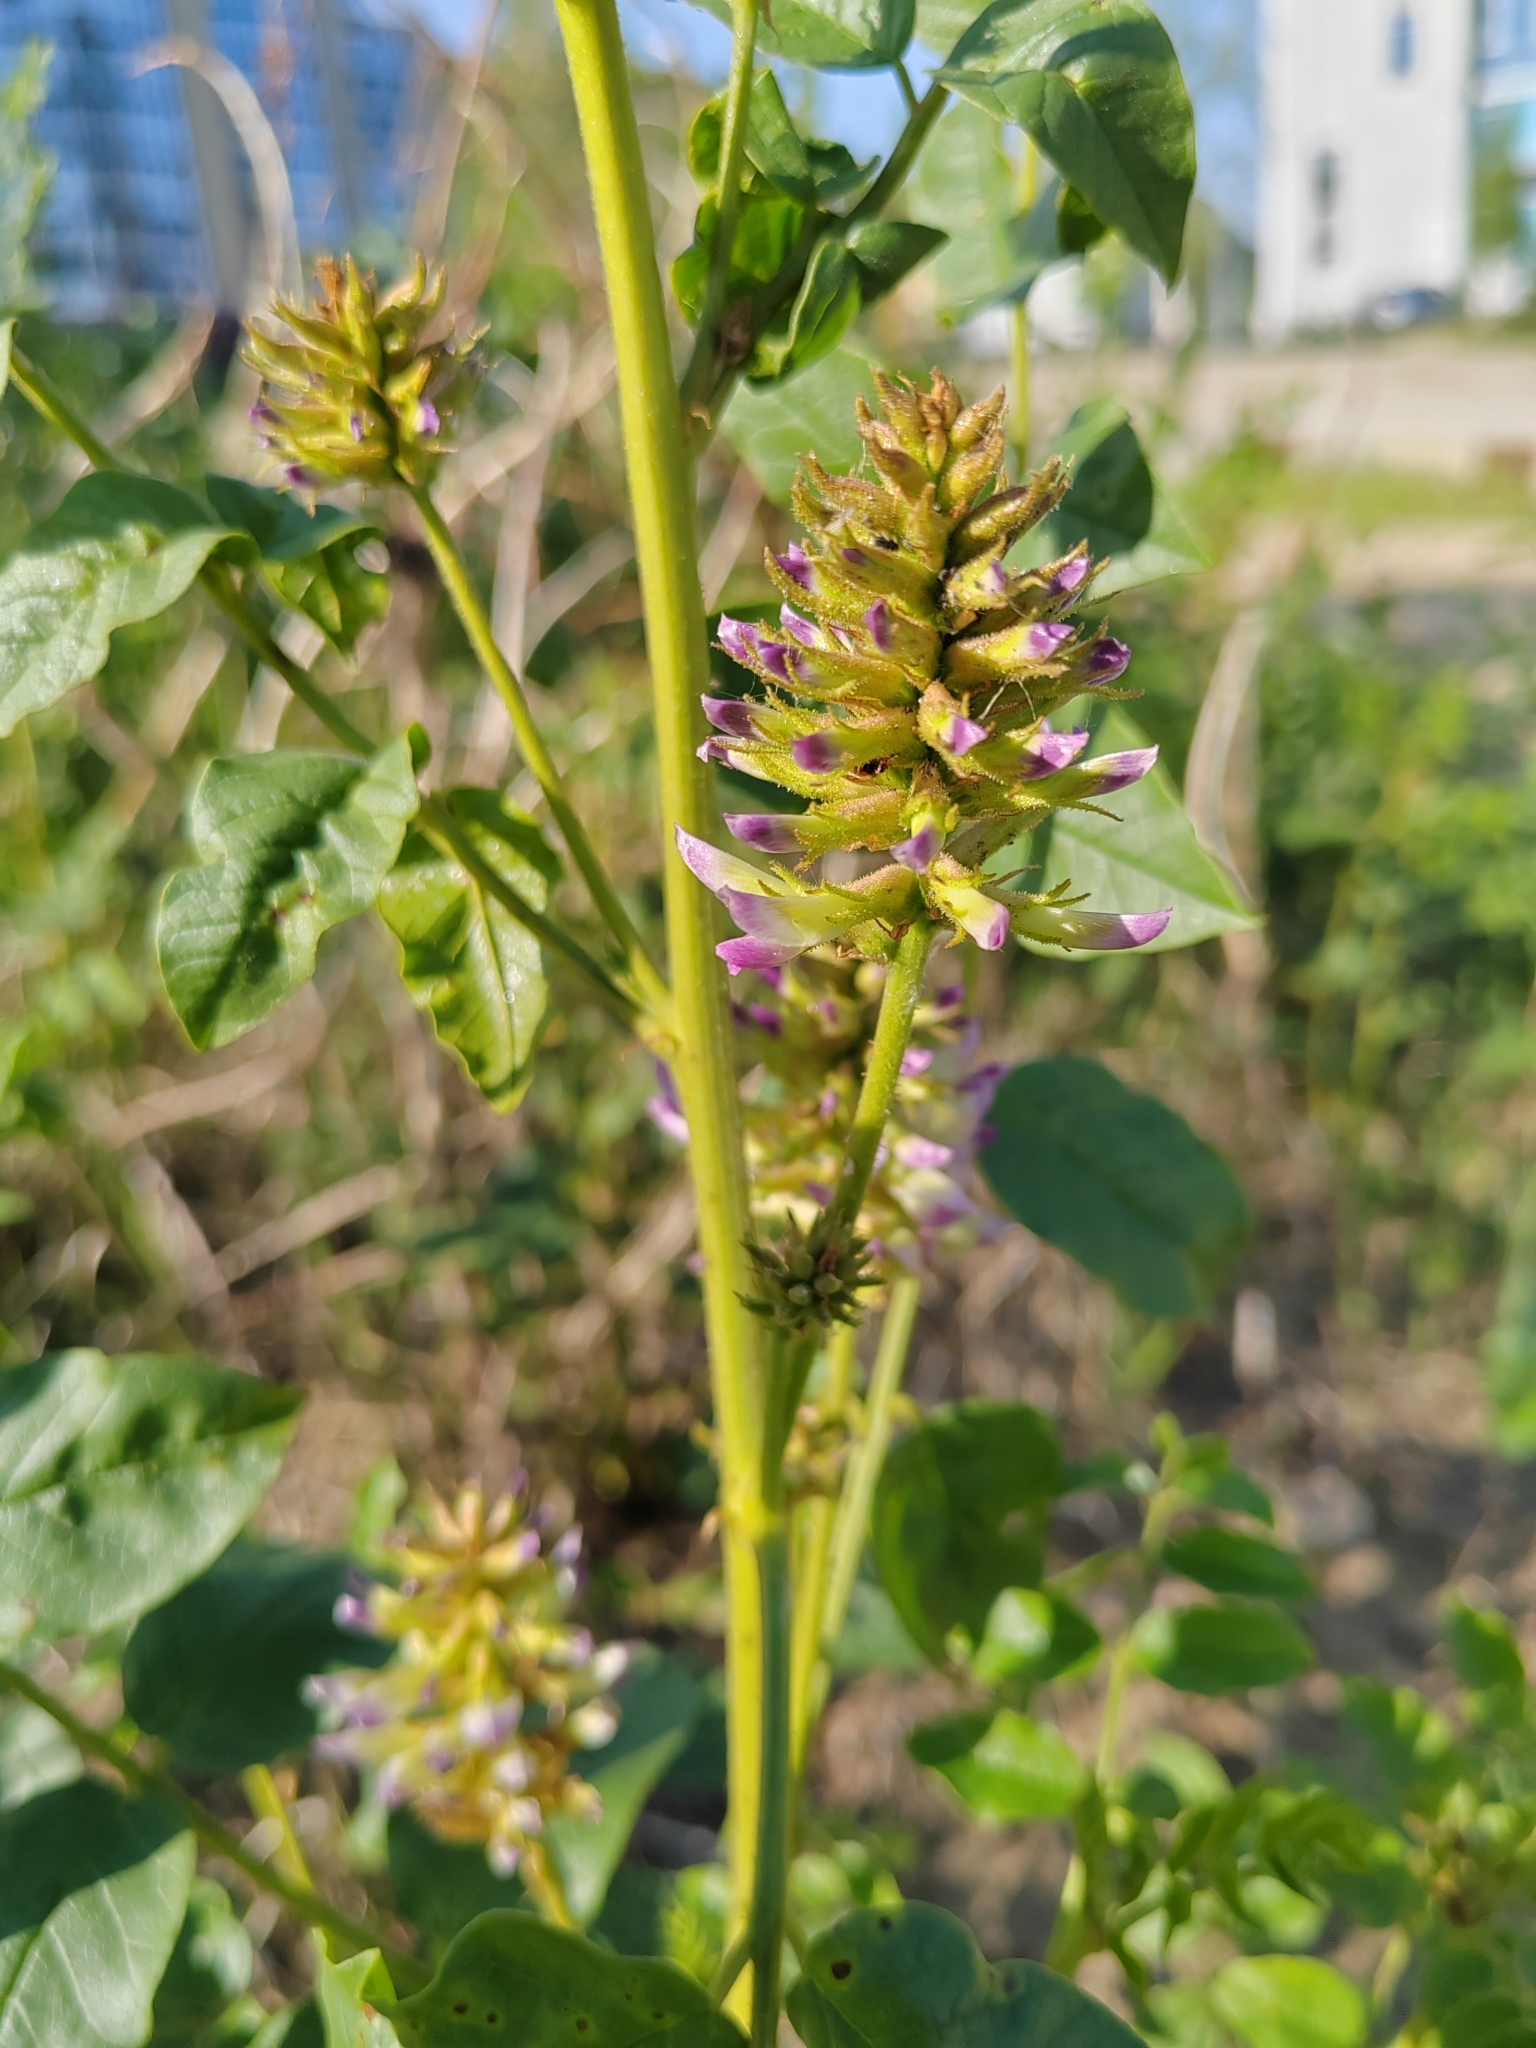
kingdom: Plantae
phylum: Tracheophyta
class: Magnoliopsida
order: Fabales
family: Fabaceae
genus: Glycyrrhiza
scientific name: Glycyrrhiza uralensis
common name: Chinese licorice
